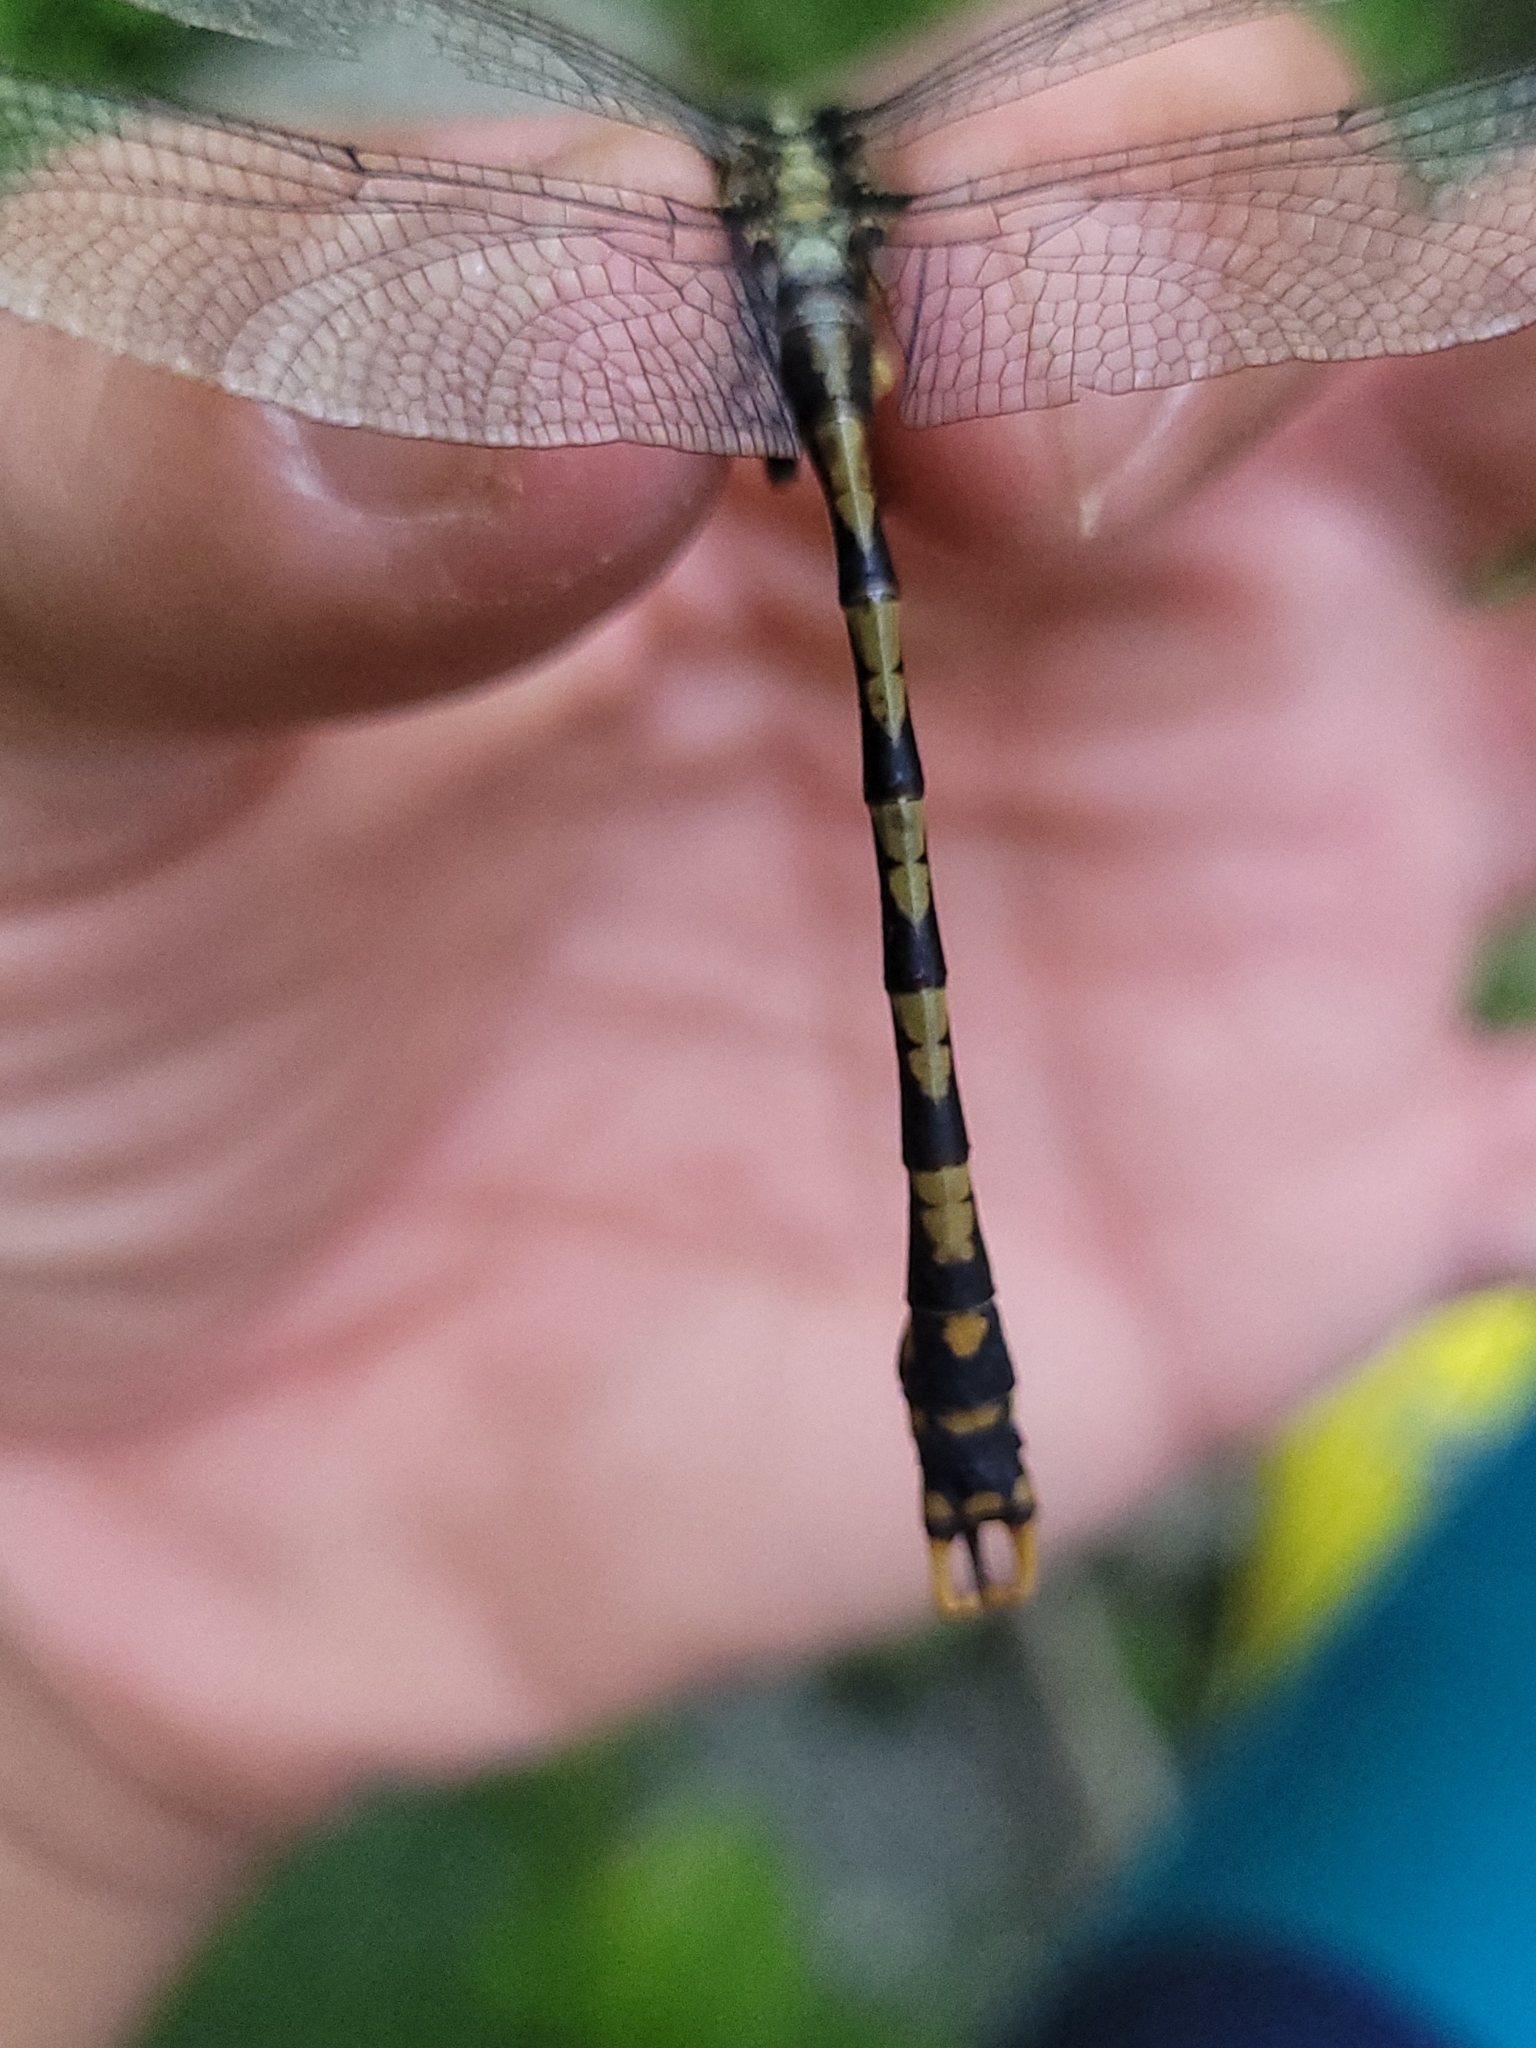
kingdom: Animalia
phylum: Arthropoda
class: Insecta
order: Odonata
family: Gomphidae
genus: Onychogomphus
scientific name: Onychogomphus uncatus
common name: Large pincertail
